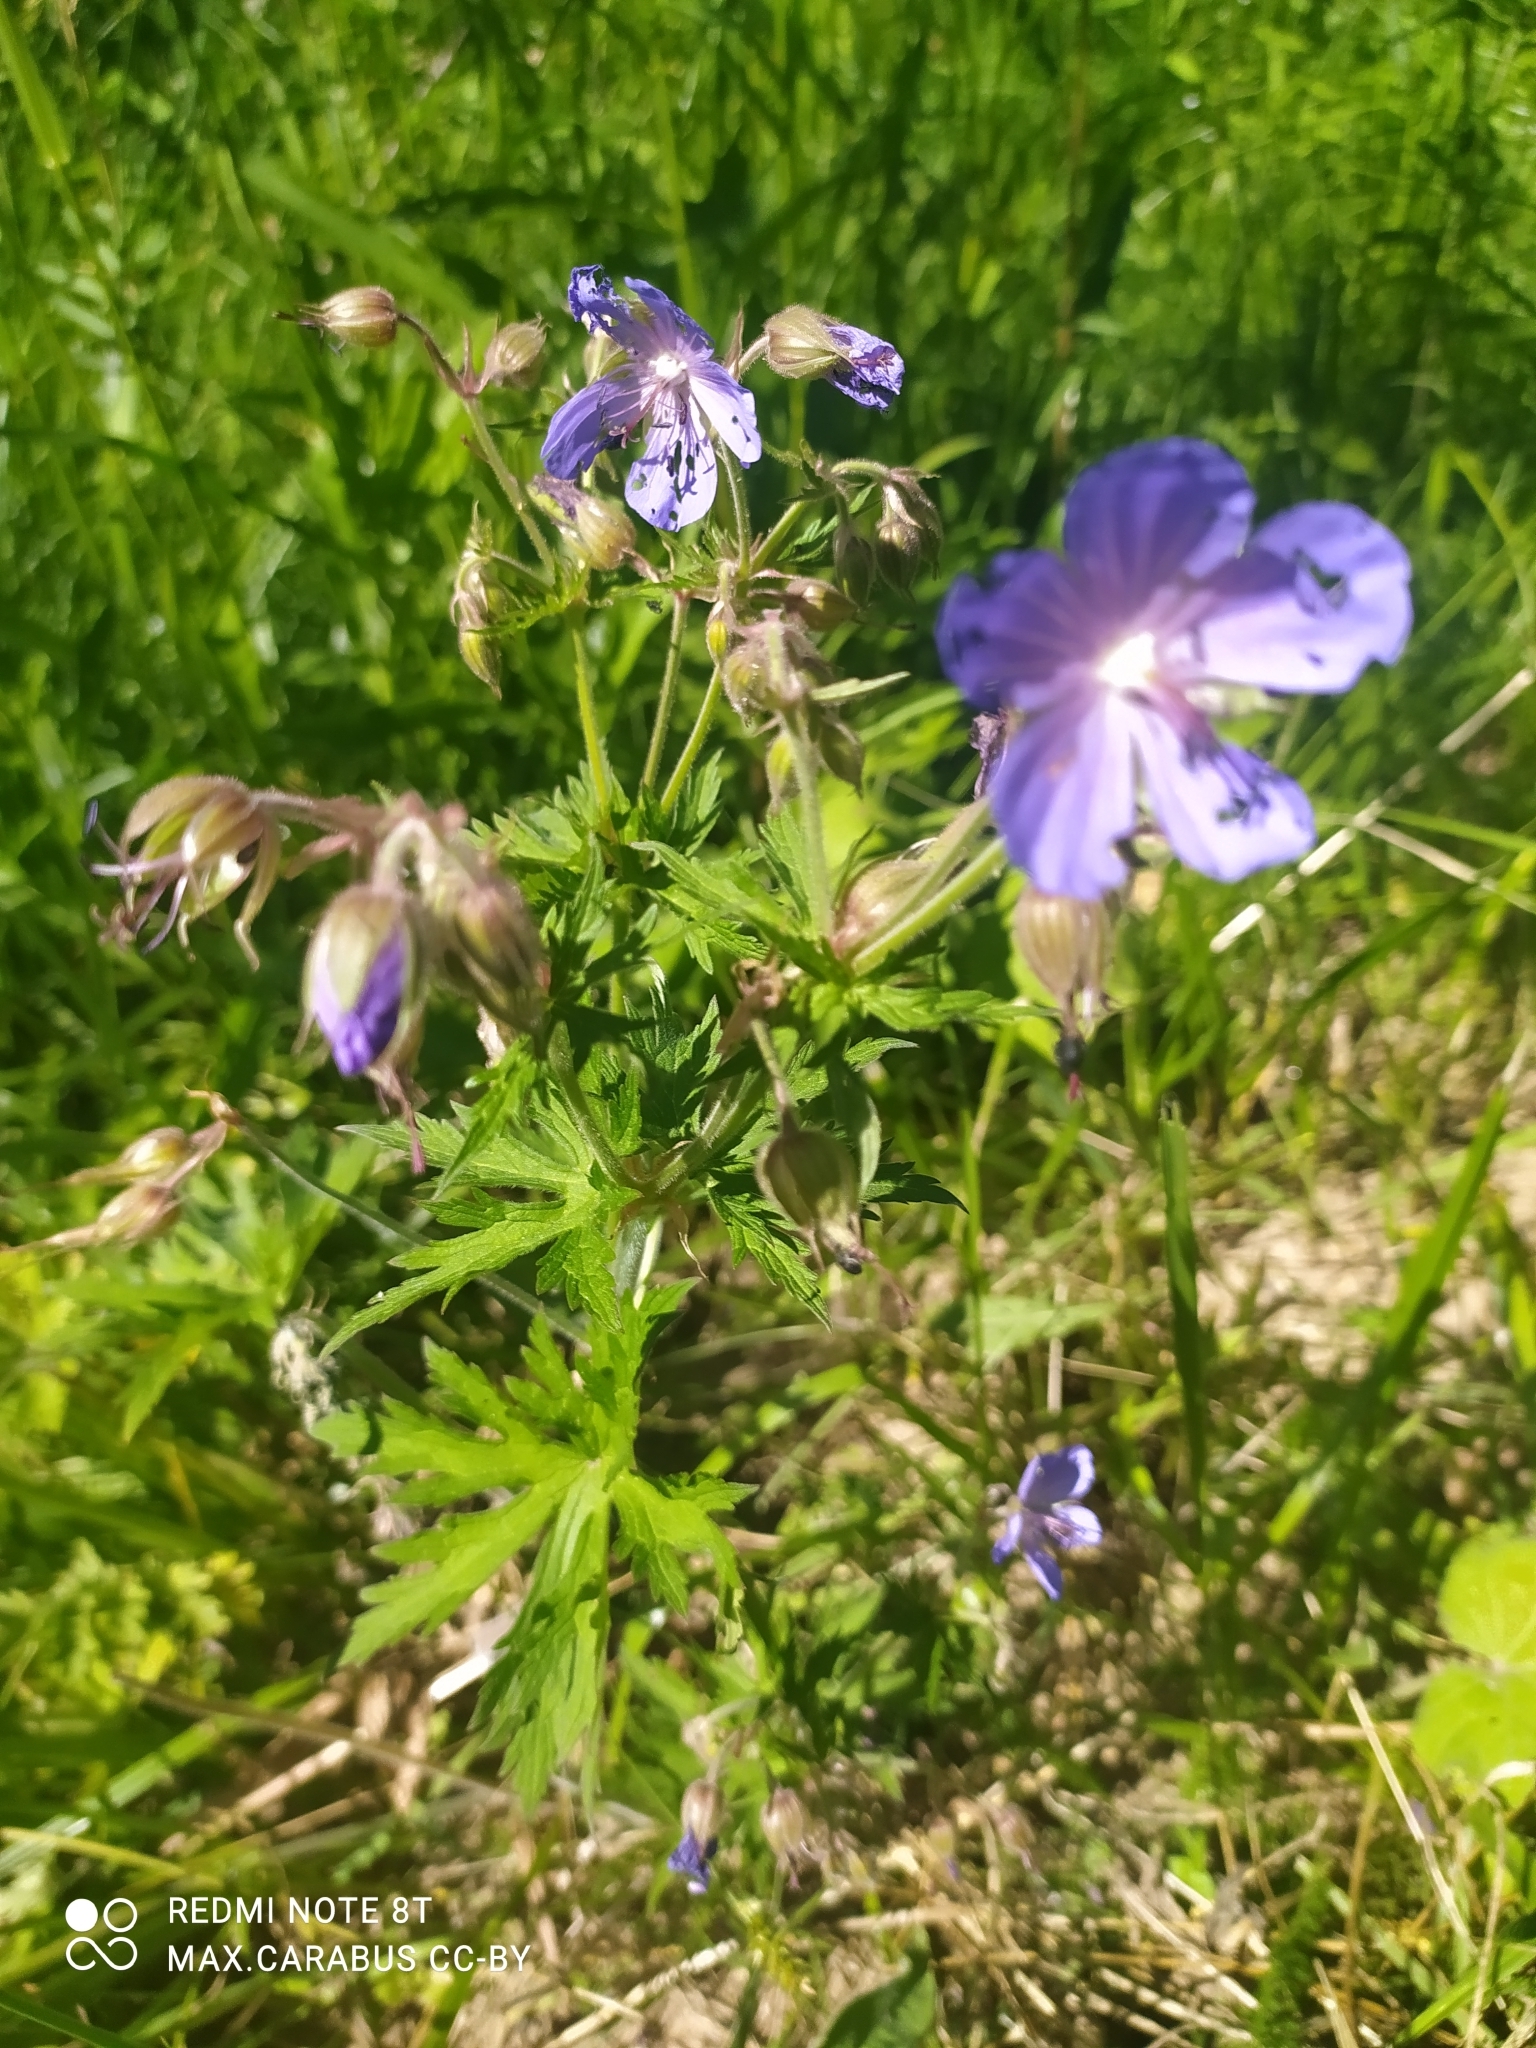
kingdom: Plantae
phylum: Tracheophyta
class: Magnoliopsida
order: Geraniales
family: Geraniaceae
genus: Geranium
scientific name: Geranium pratense
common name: Meadow crane's-bill
